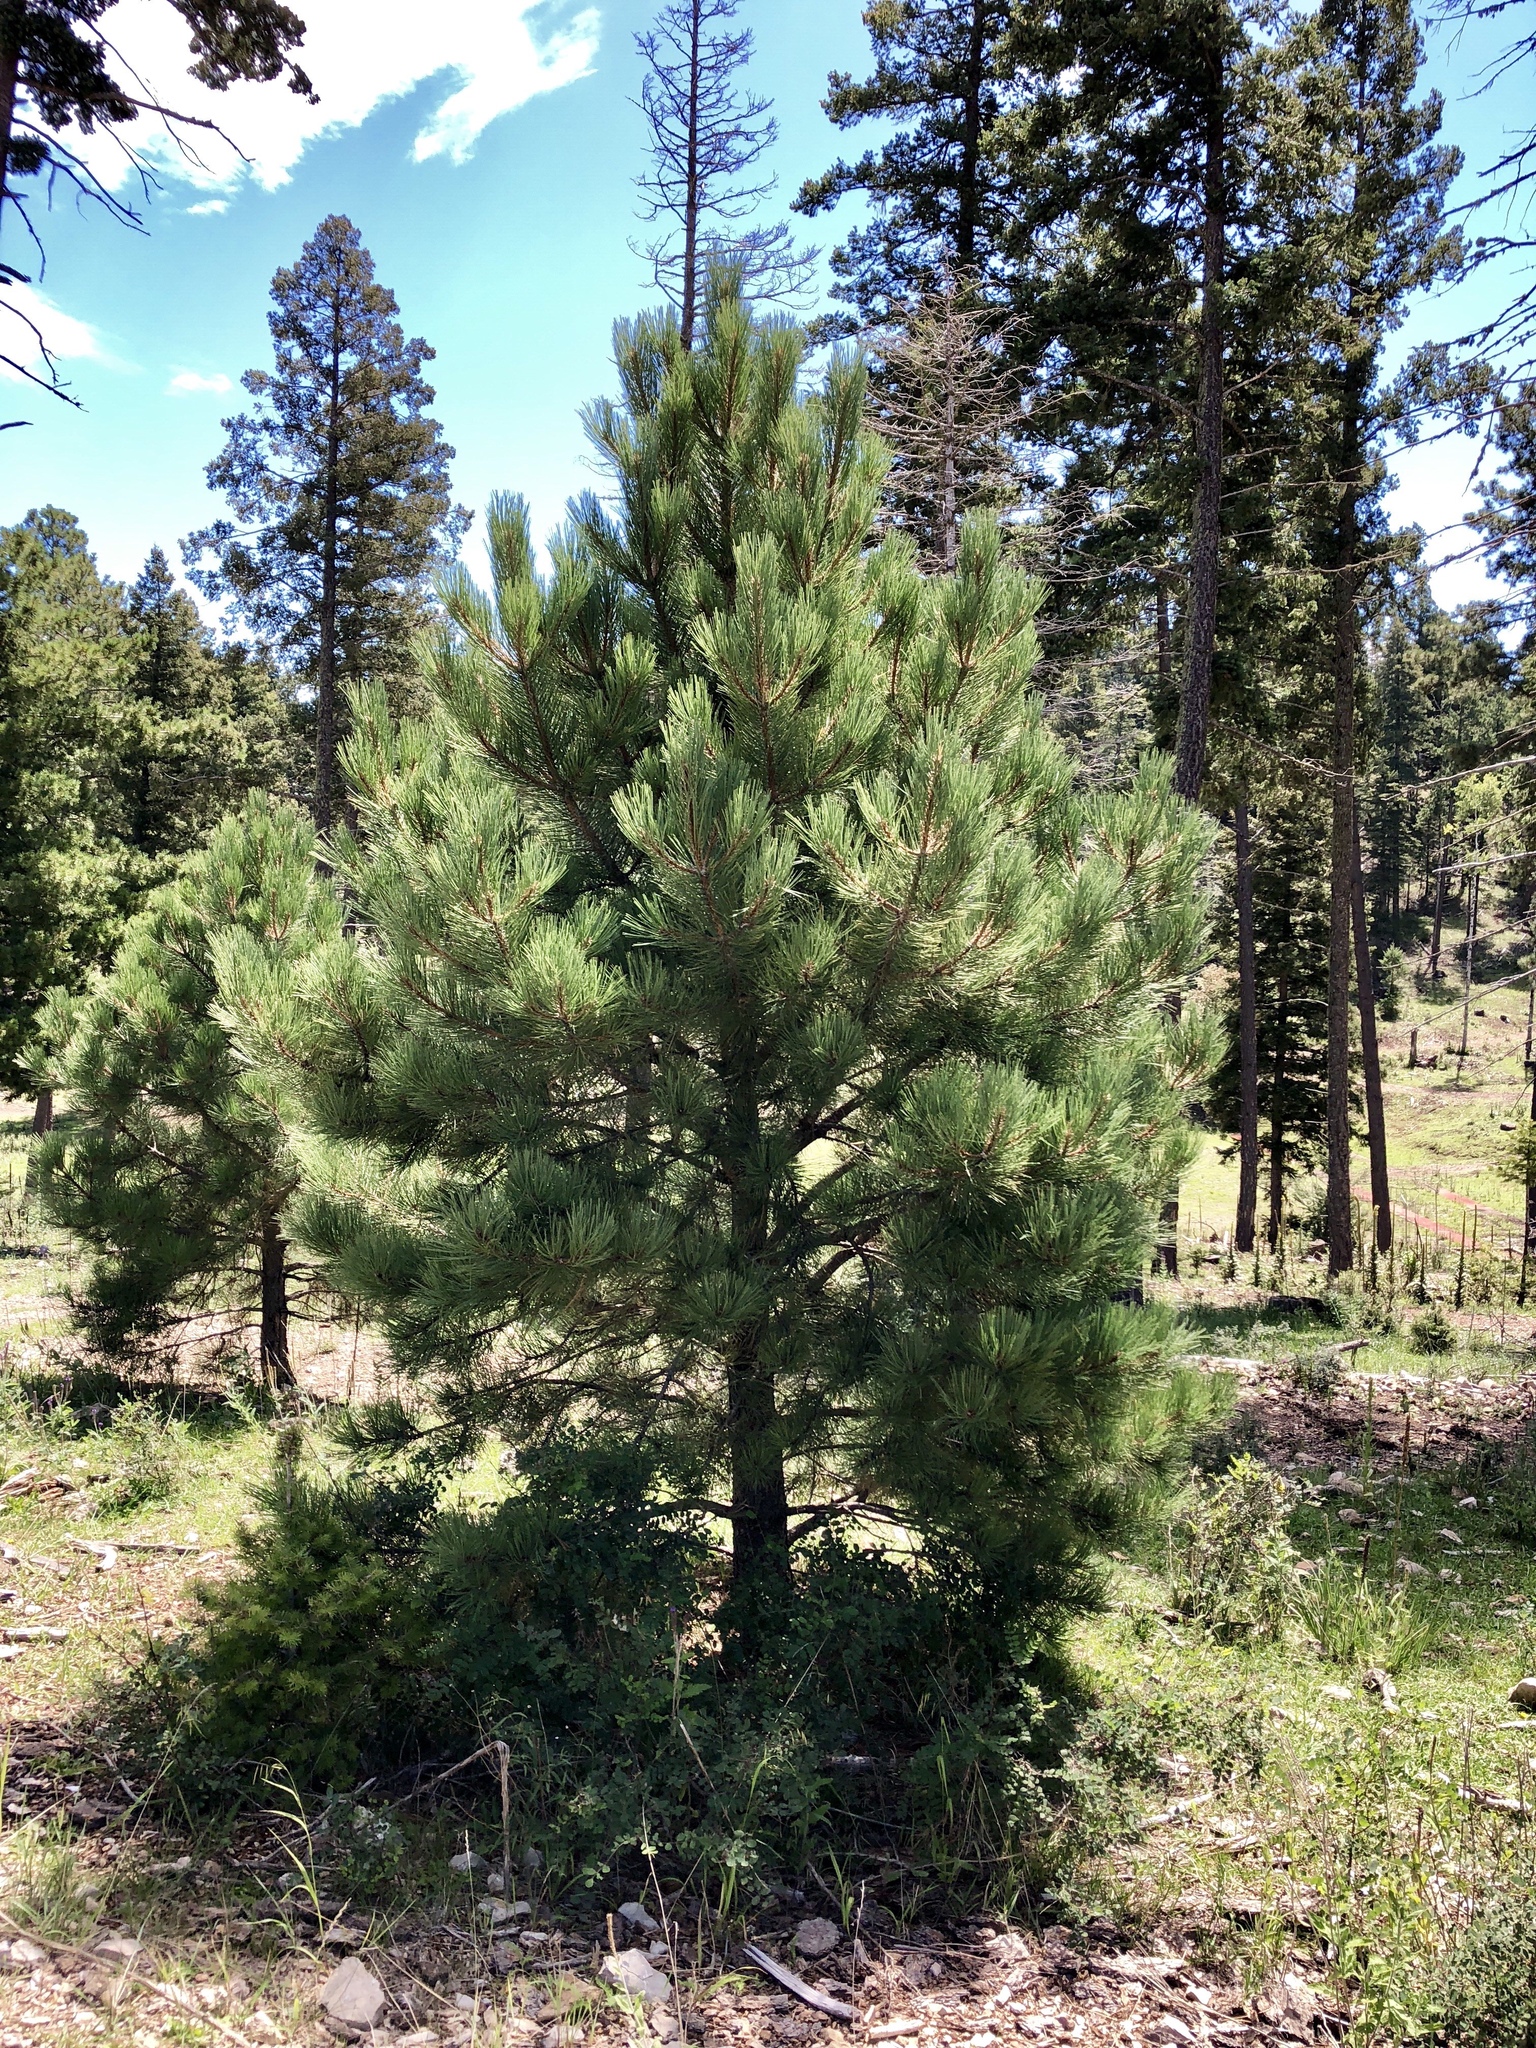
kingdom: Plantae
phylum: Tracheophyta
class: Pinopsida
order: Pinales
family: Pinaceae
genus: Pinus
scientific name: Pinus ponderosa
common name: Western yellow-pine
